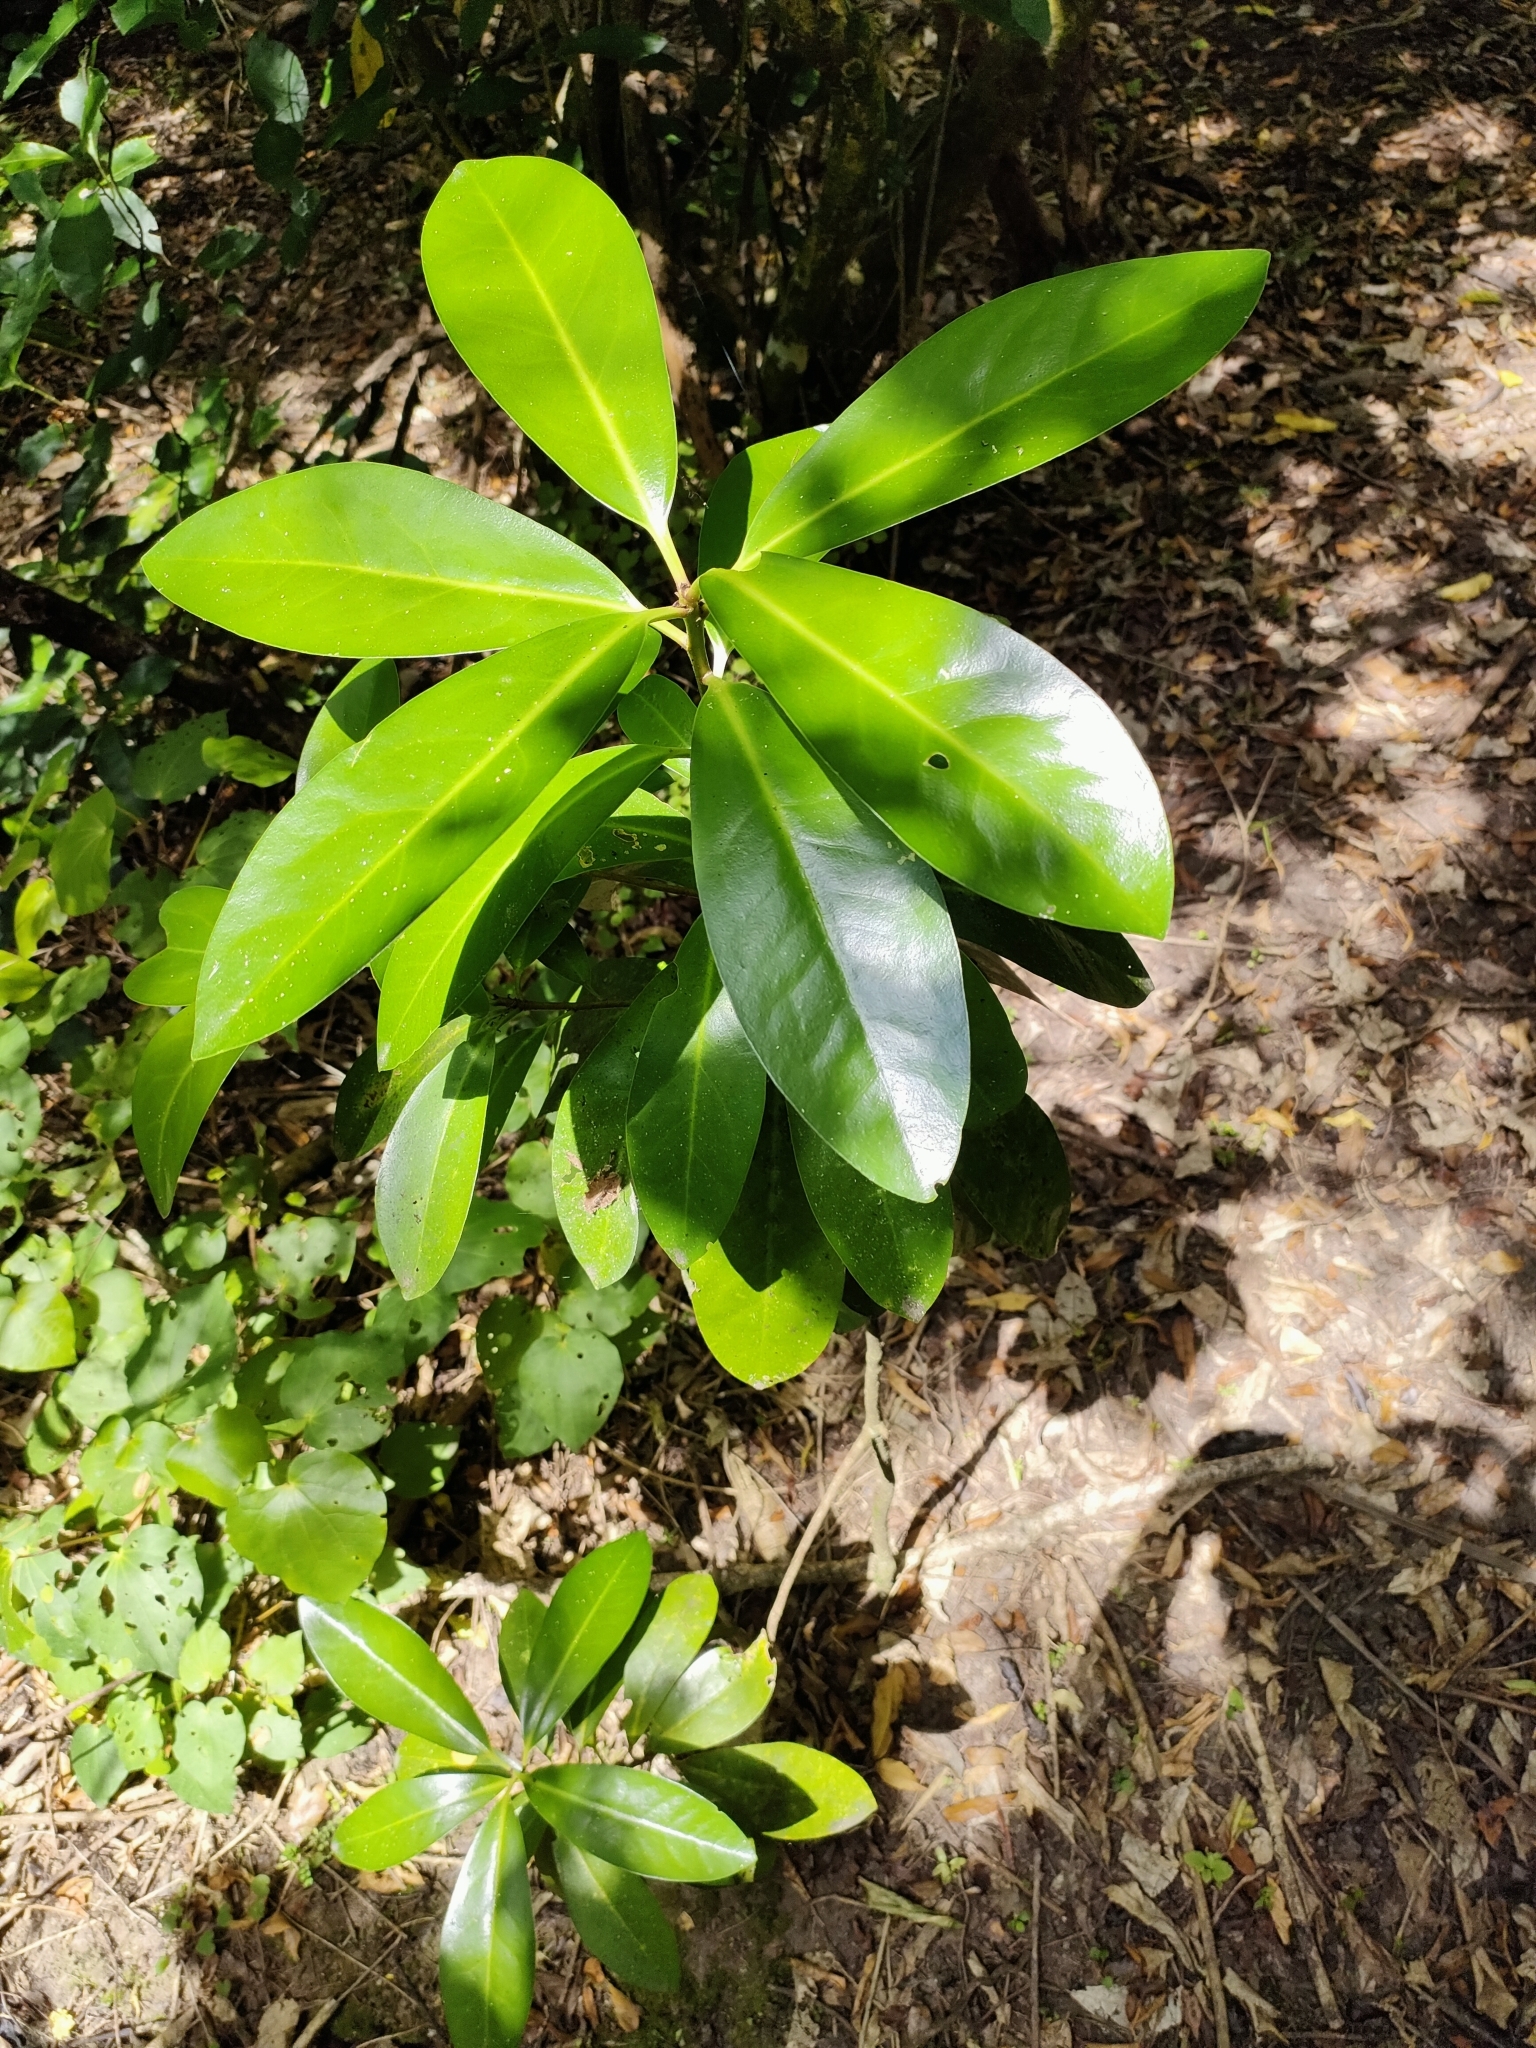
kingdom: Plantae
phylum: Tracheophyta
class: Magnoliopsida
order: Cucurbitales
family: Corynocarpaceae
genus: Corynocarpus
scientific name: Corynocarpus laevigatus
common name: New zealand laurel
